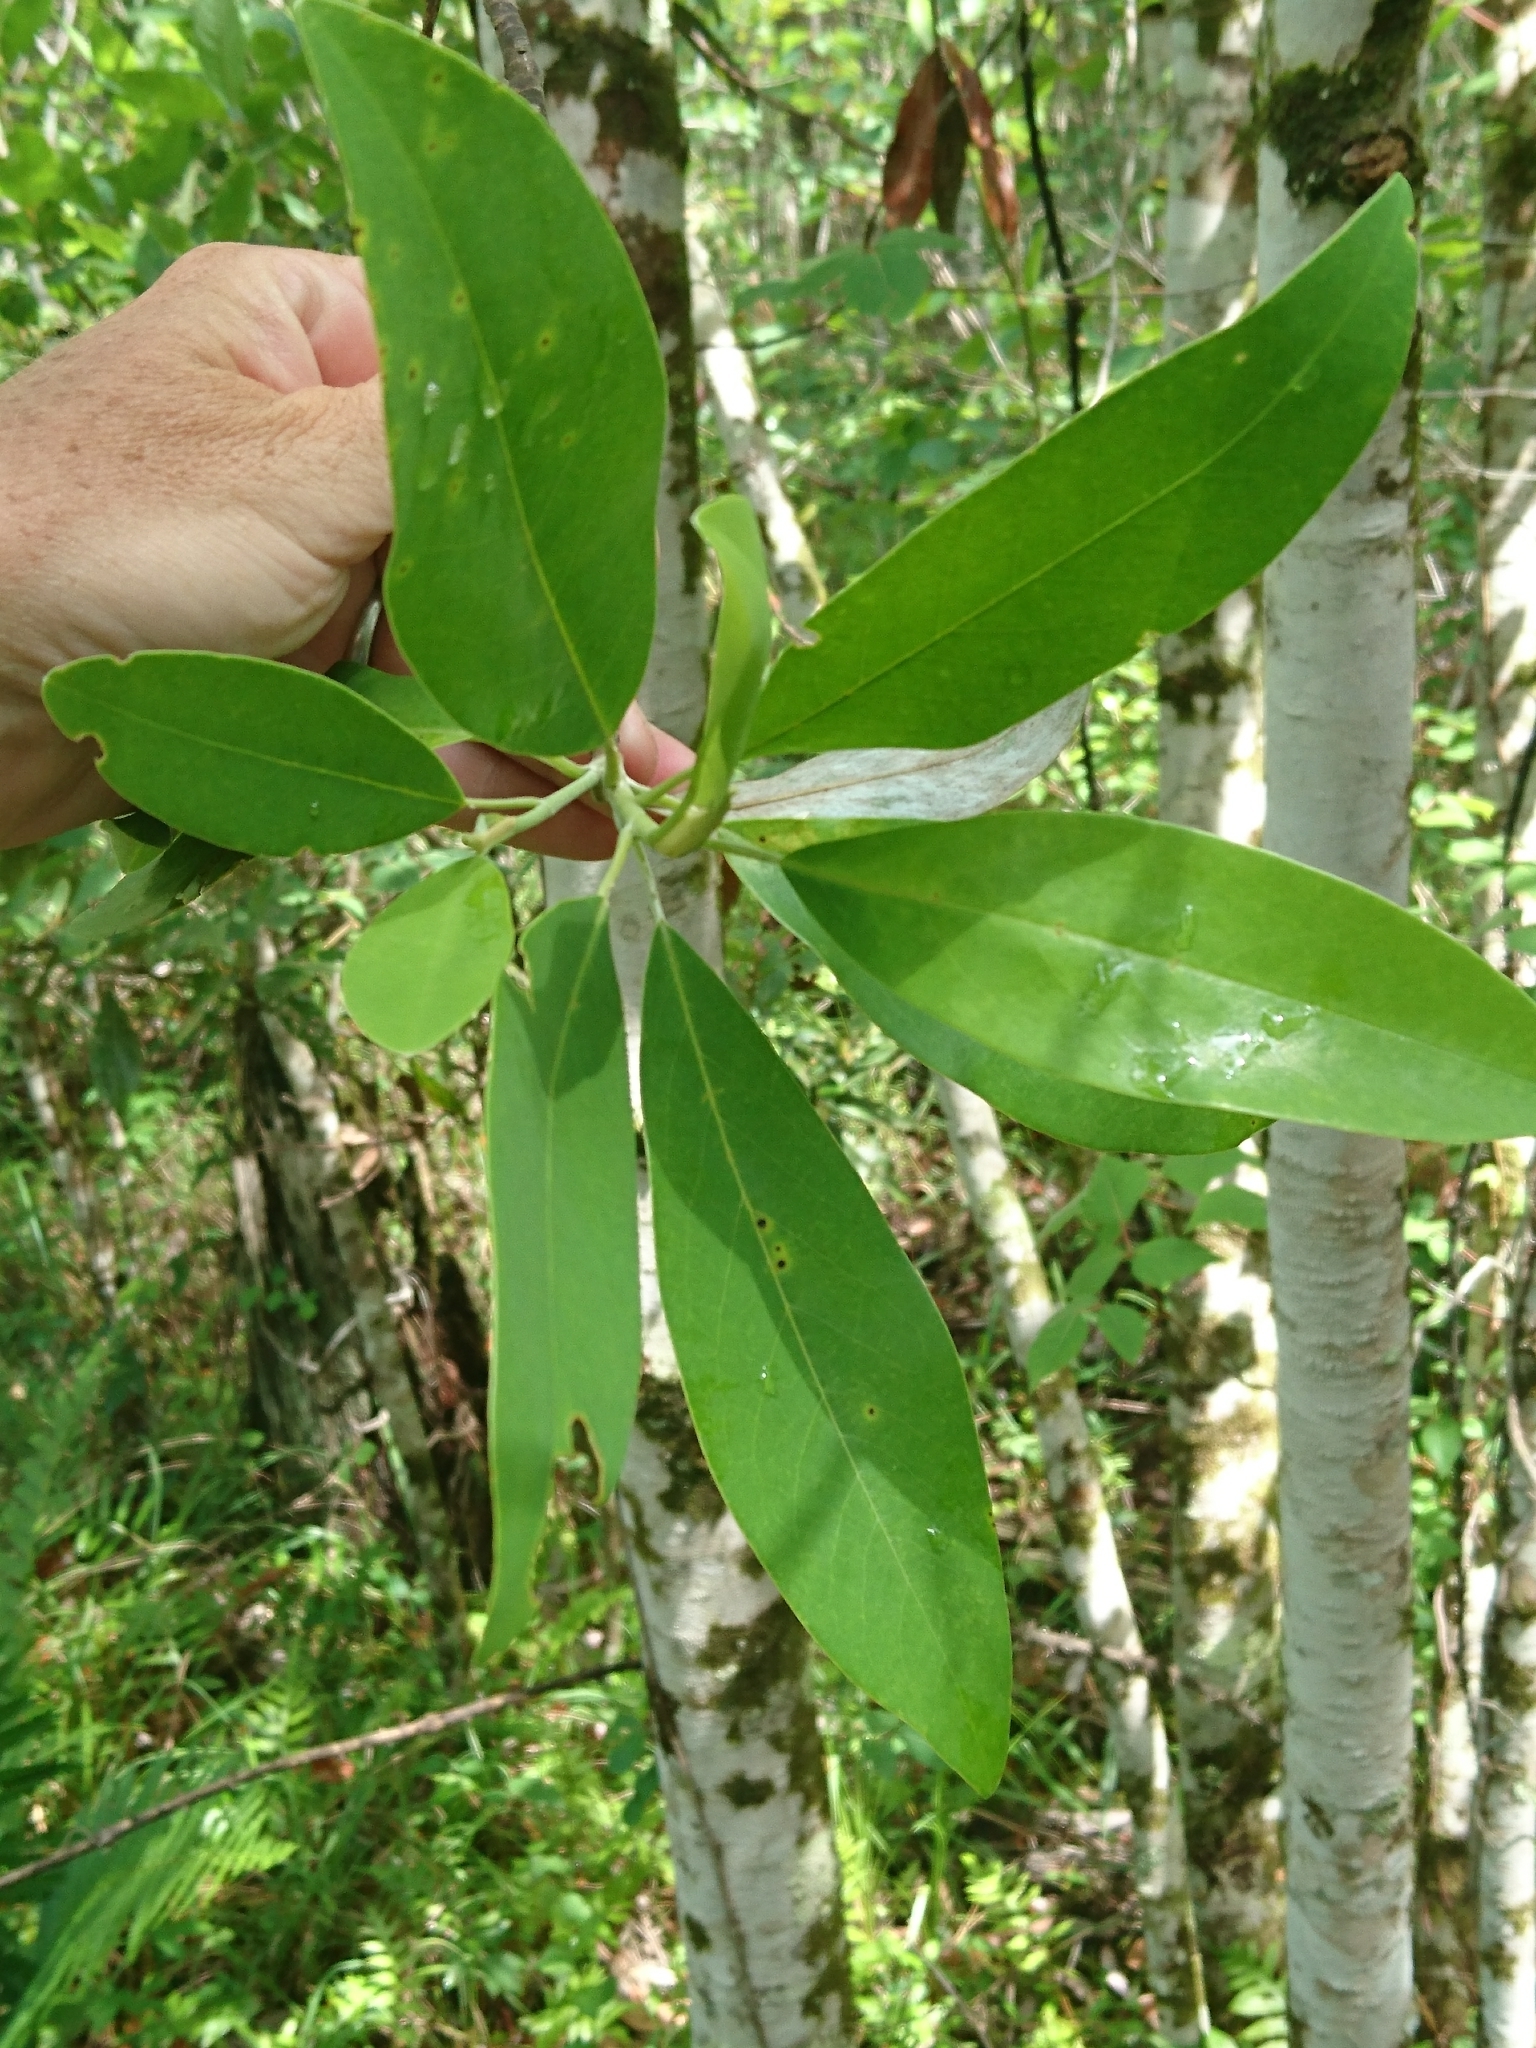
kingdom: Plantae
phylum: Tracheophyta
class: Magnoliopsida
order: Magnoliales
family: Magnoliaceae
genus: Magnolia
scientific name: Magnolia virginiana
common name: Swamp bay
